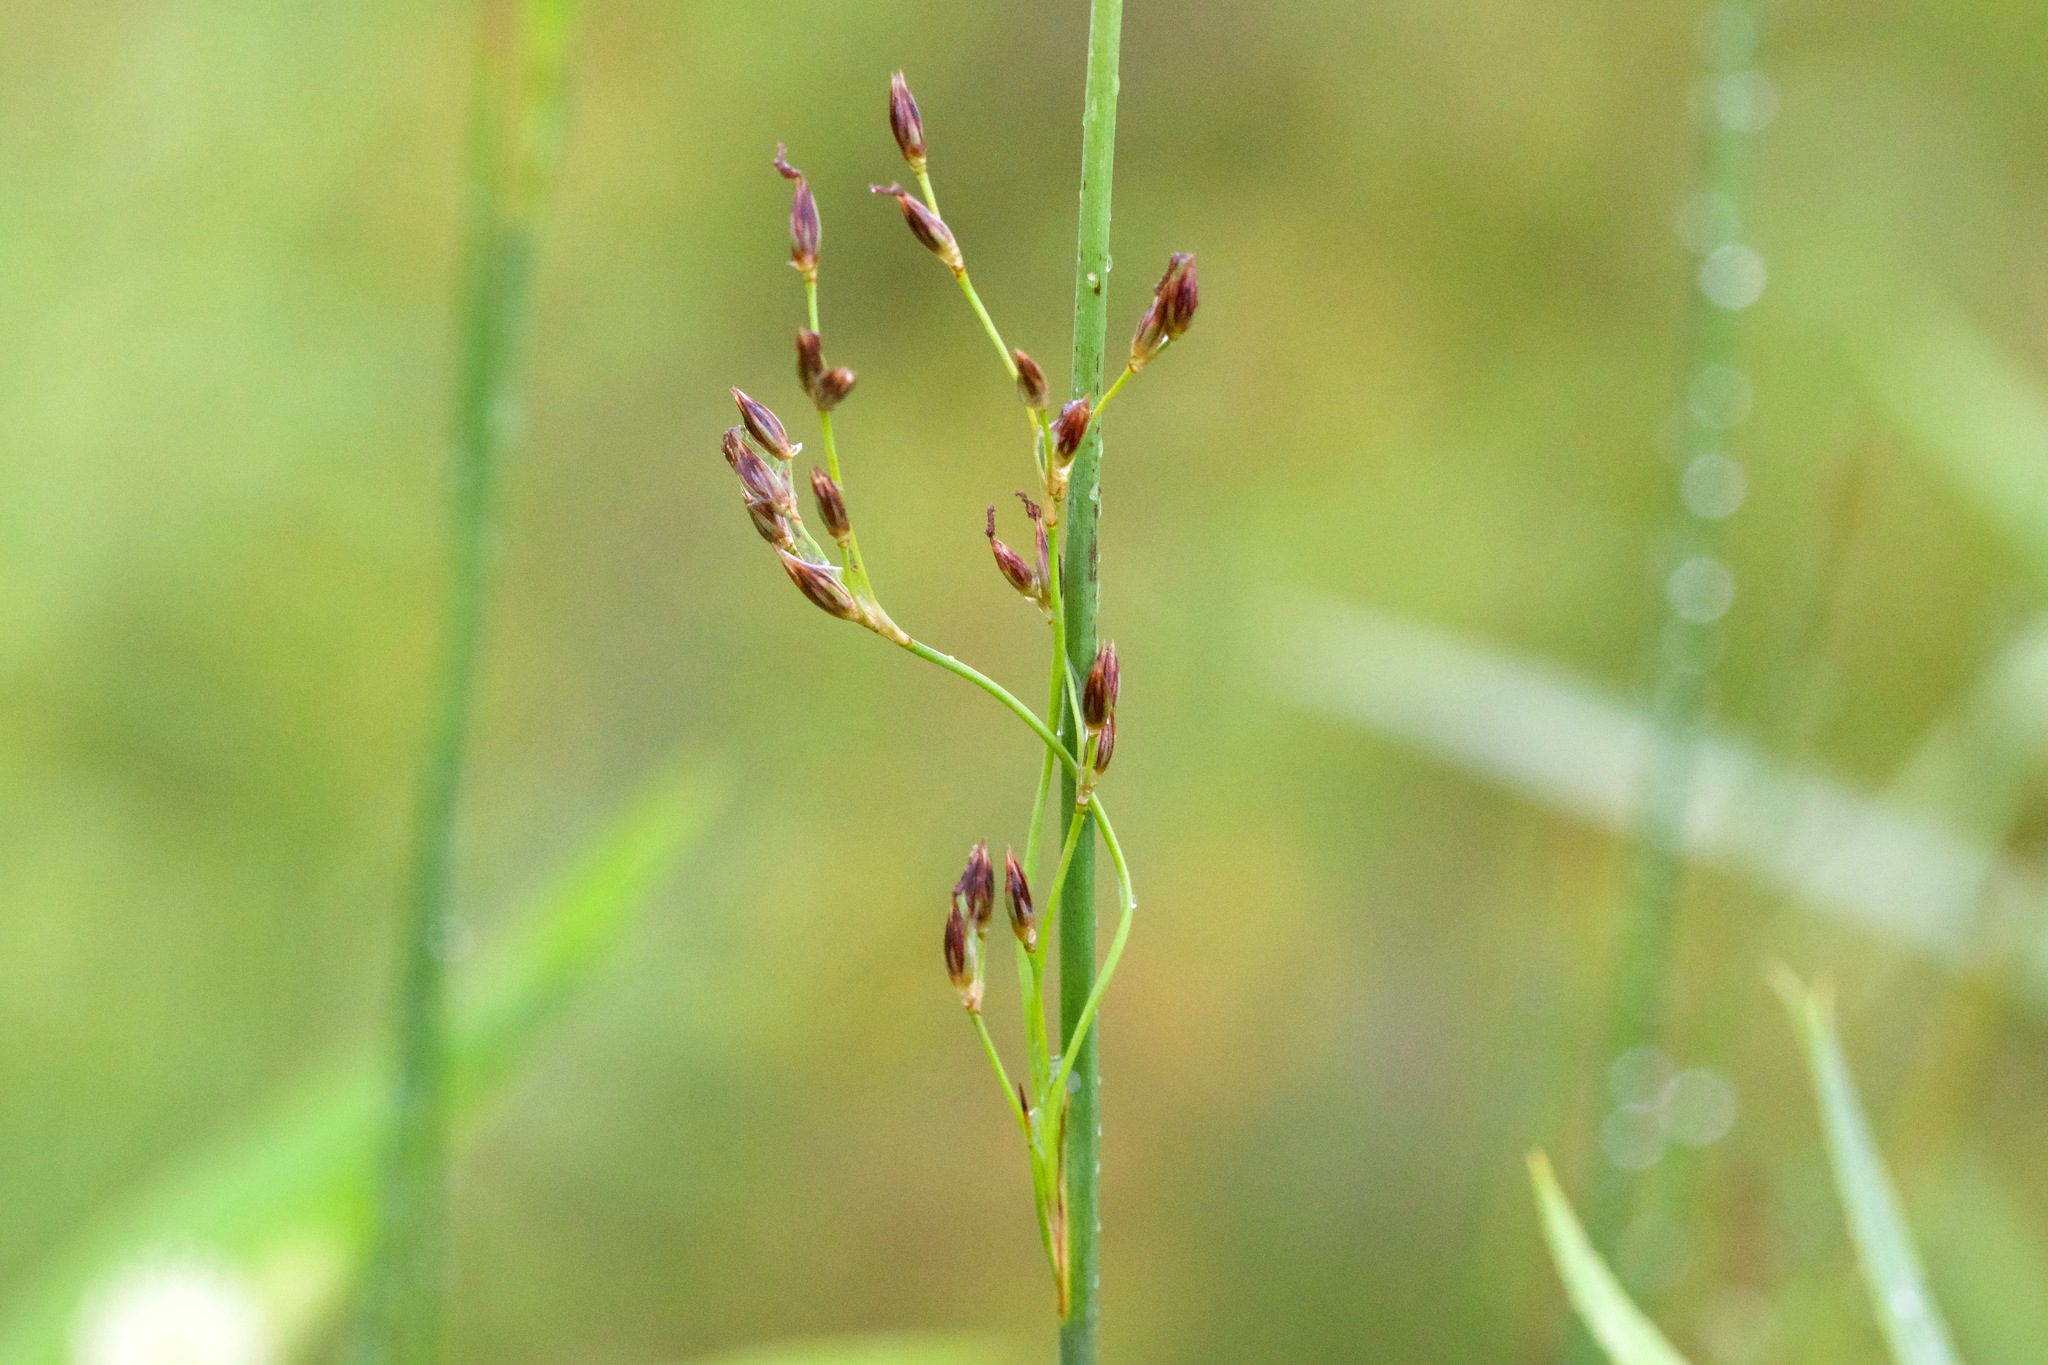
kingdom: Plantae
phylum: Tracheophyta
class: Liliopsida
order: Poales
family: Juncaceae
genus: Juncus
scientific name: Juncus balticus
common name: Baltic rush
